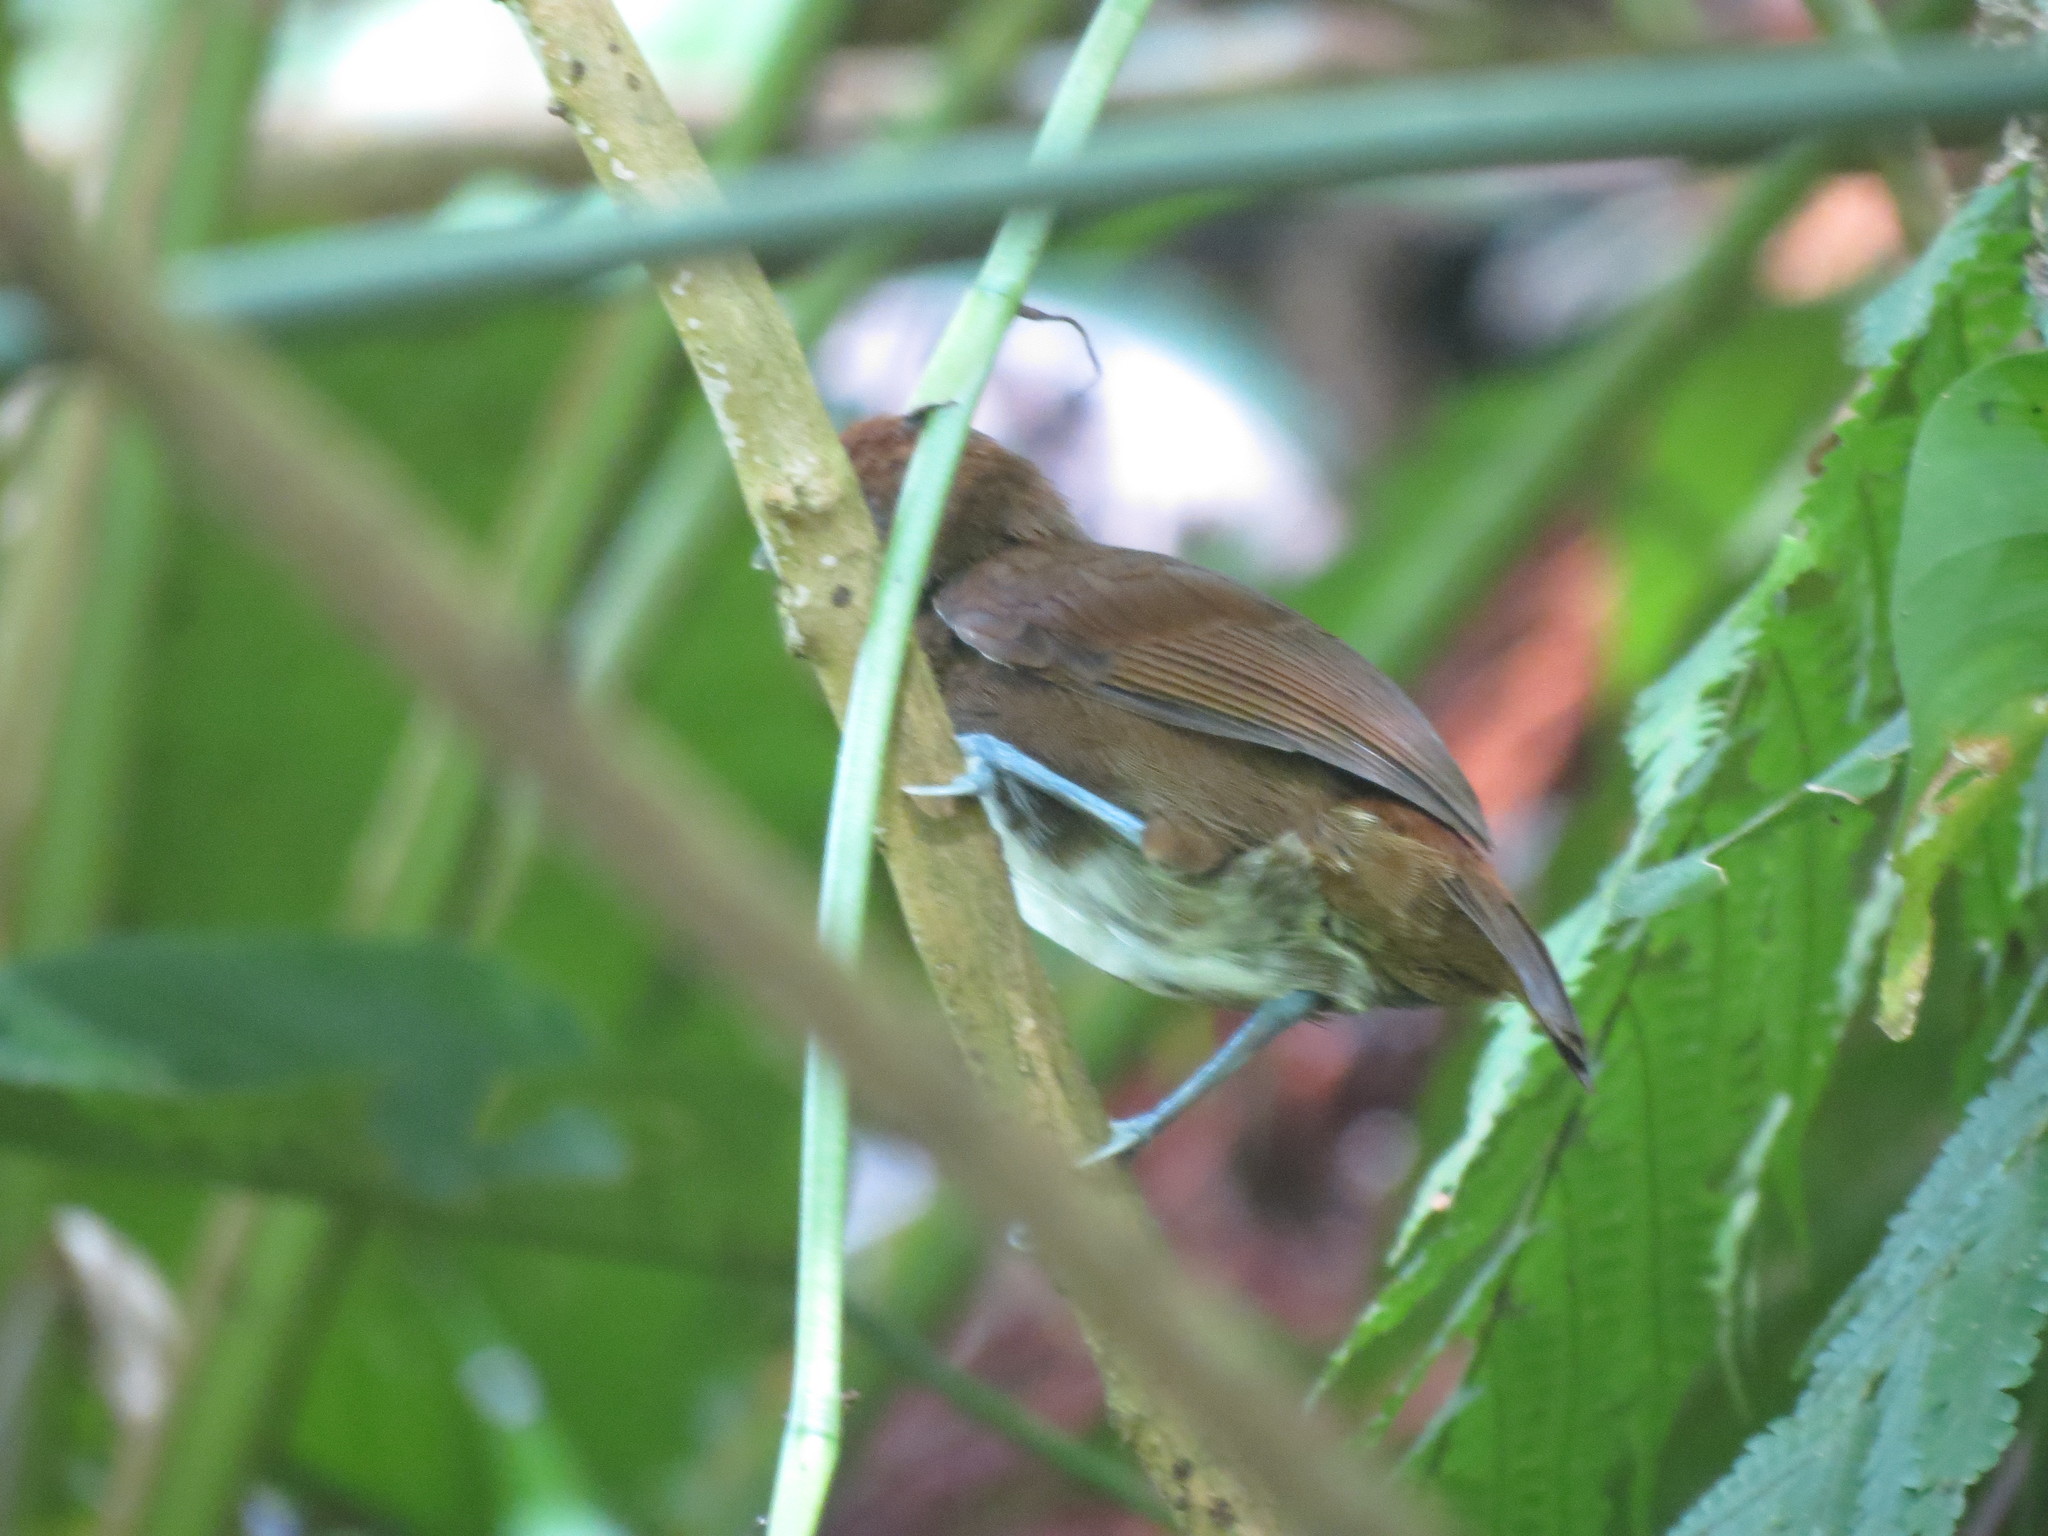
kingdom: Animalia
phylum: Chordata
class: Aves
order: Passeriformes
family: Thamnophilidae
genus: Gymnopithys
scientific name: Gymnopithys leucaspis
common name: White-cheeked antbird
